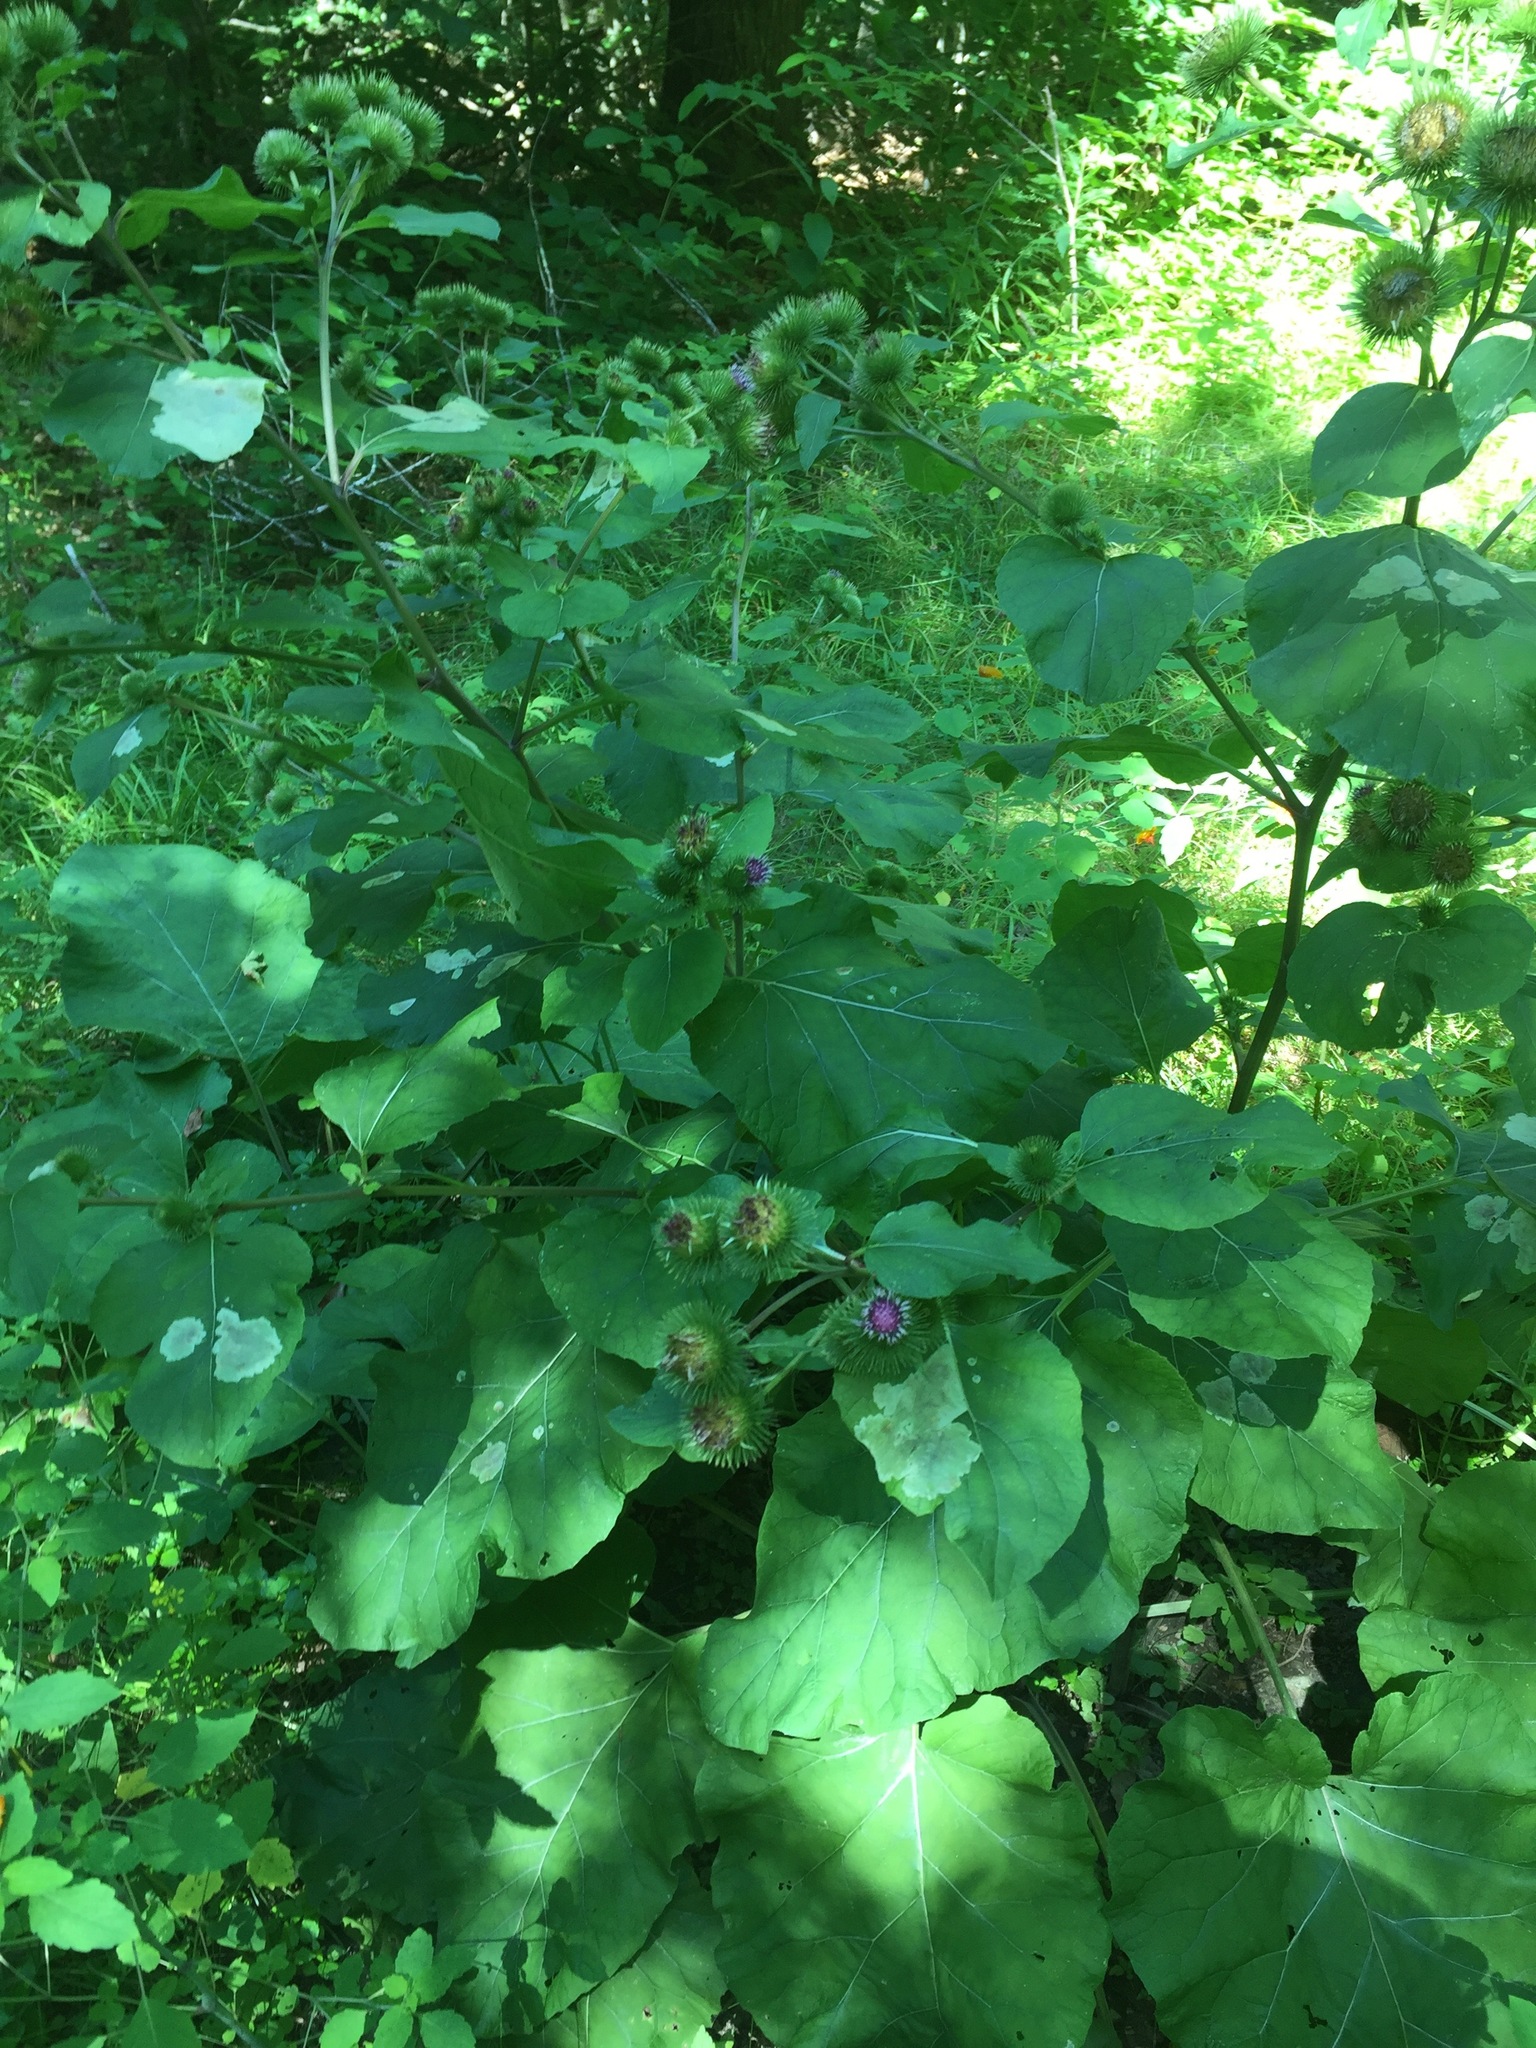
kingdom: Plantae
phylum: Tracheophyta
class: Magnoliopsida
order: Asterales
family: Asteraceae
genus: Arctium
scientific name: Arctium lappa
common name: Greater burdock
